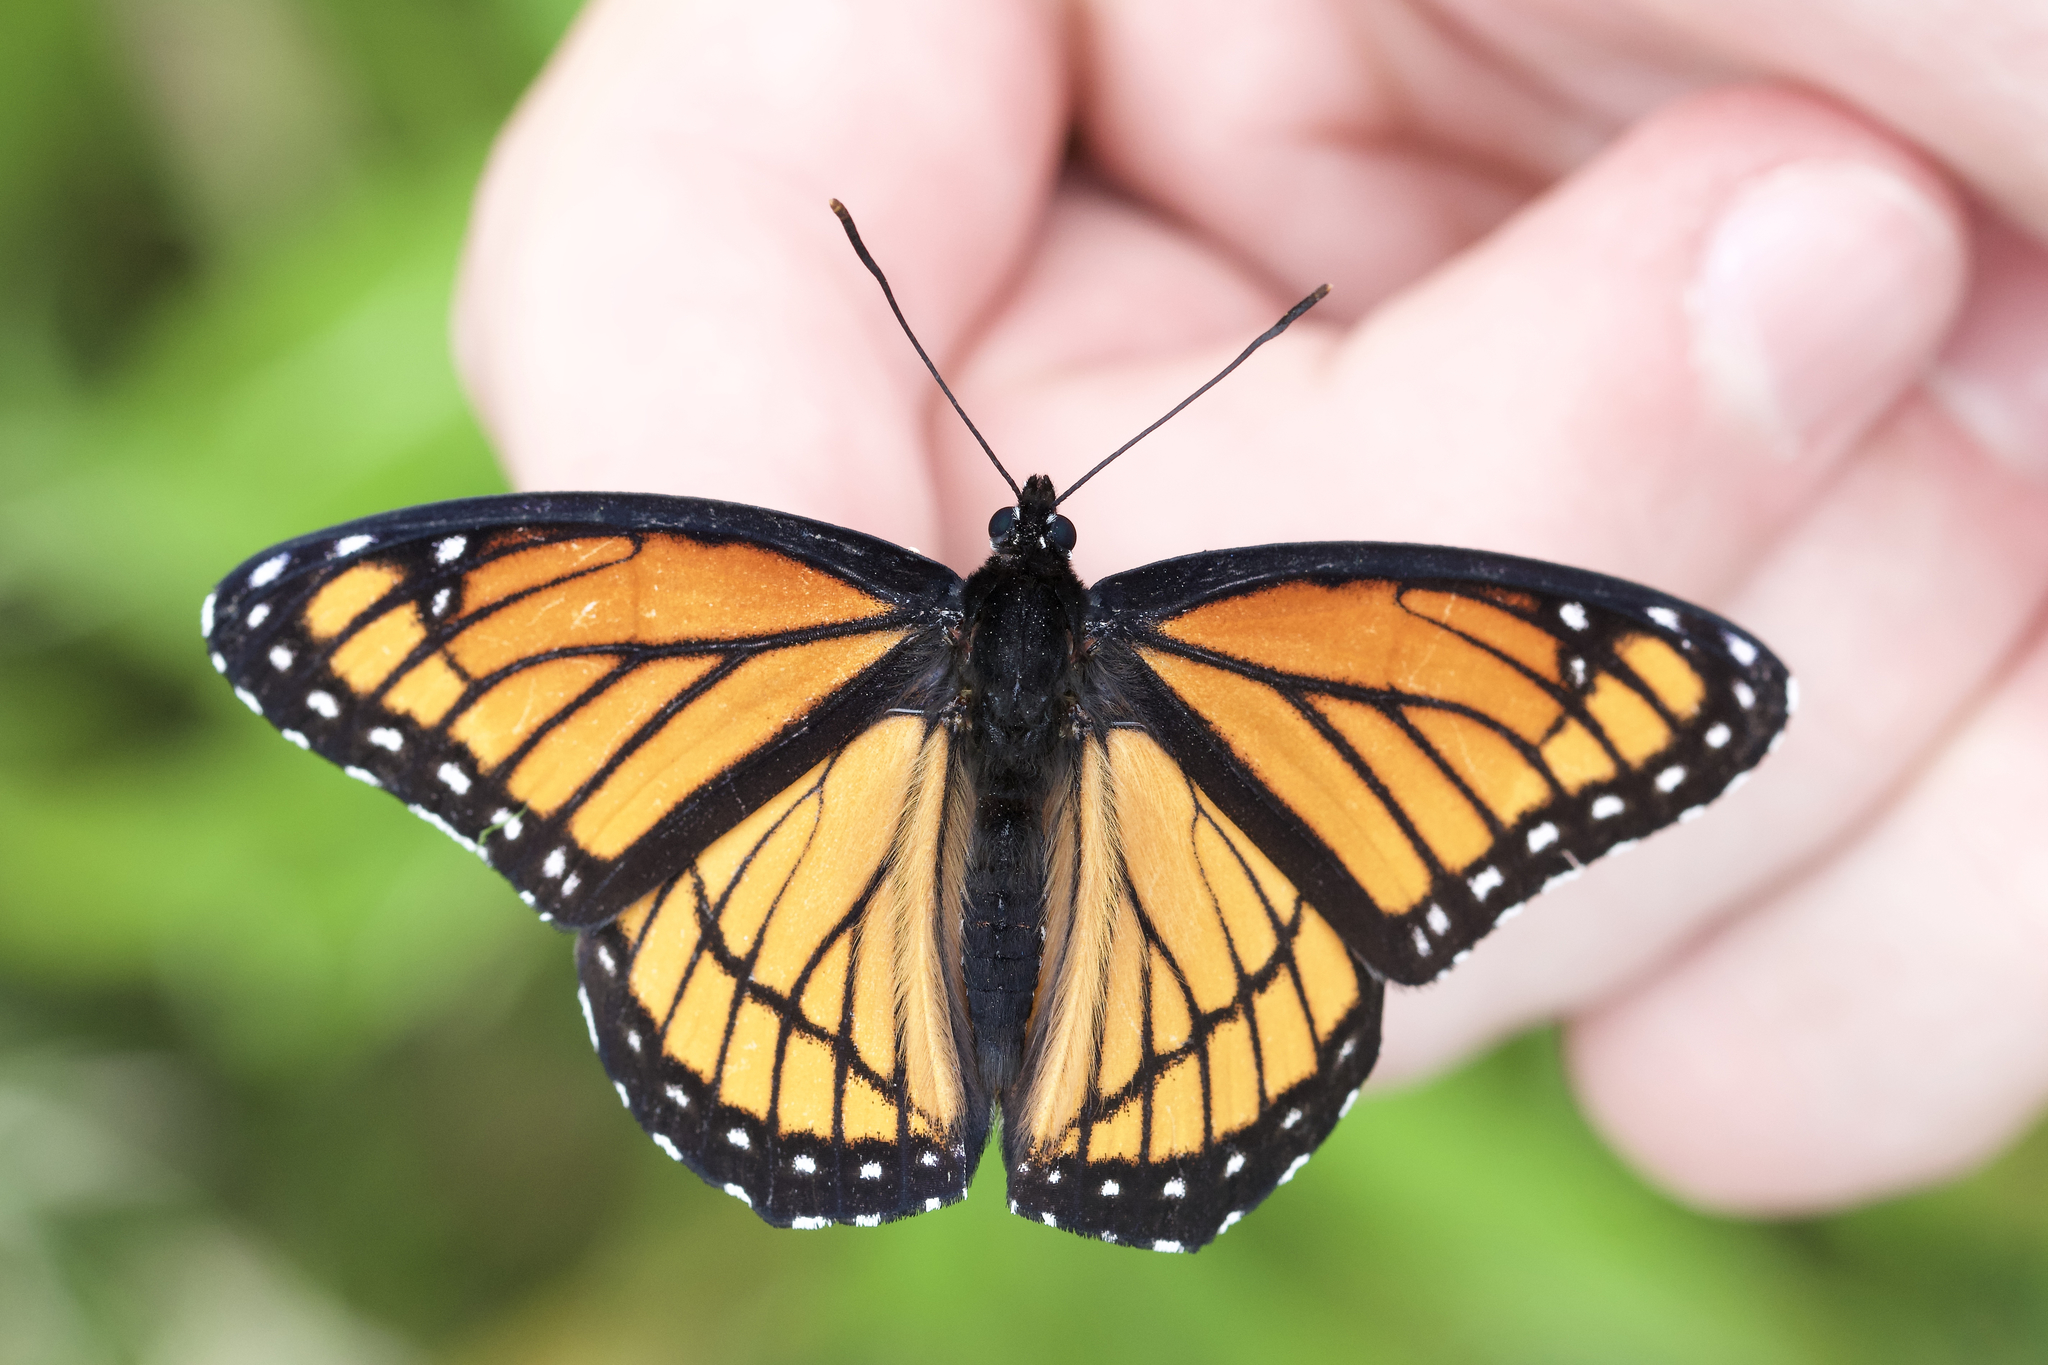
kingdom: Animalia
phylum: Arthropoda
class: Insecta
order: Lepidoptera
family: Nymphalidae
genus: Limenitis
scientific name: Limenitis archippus
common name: Viceroy
